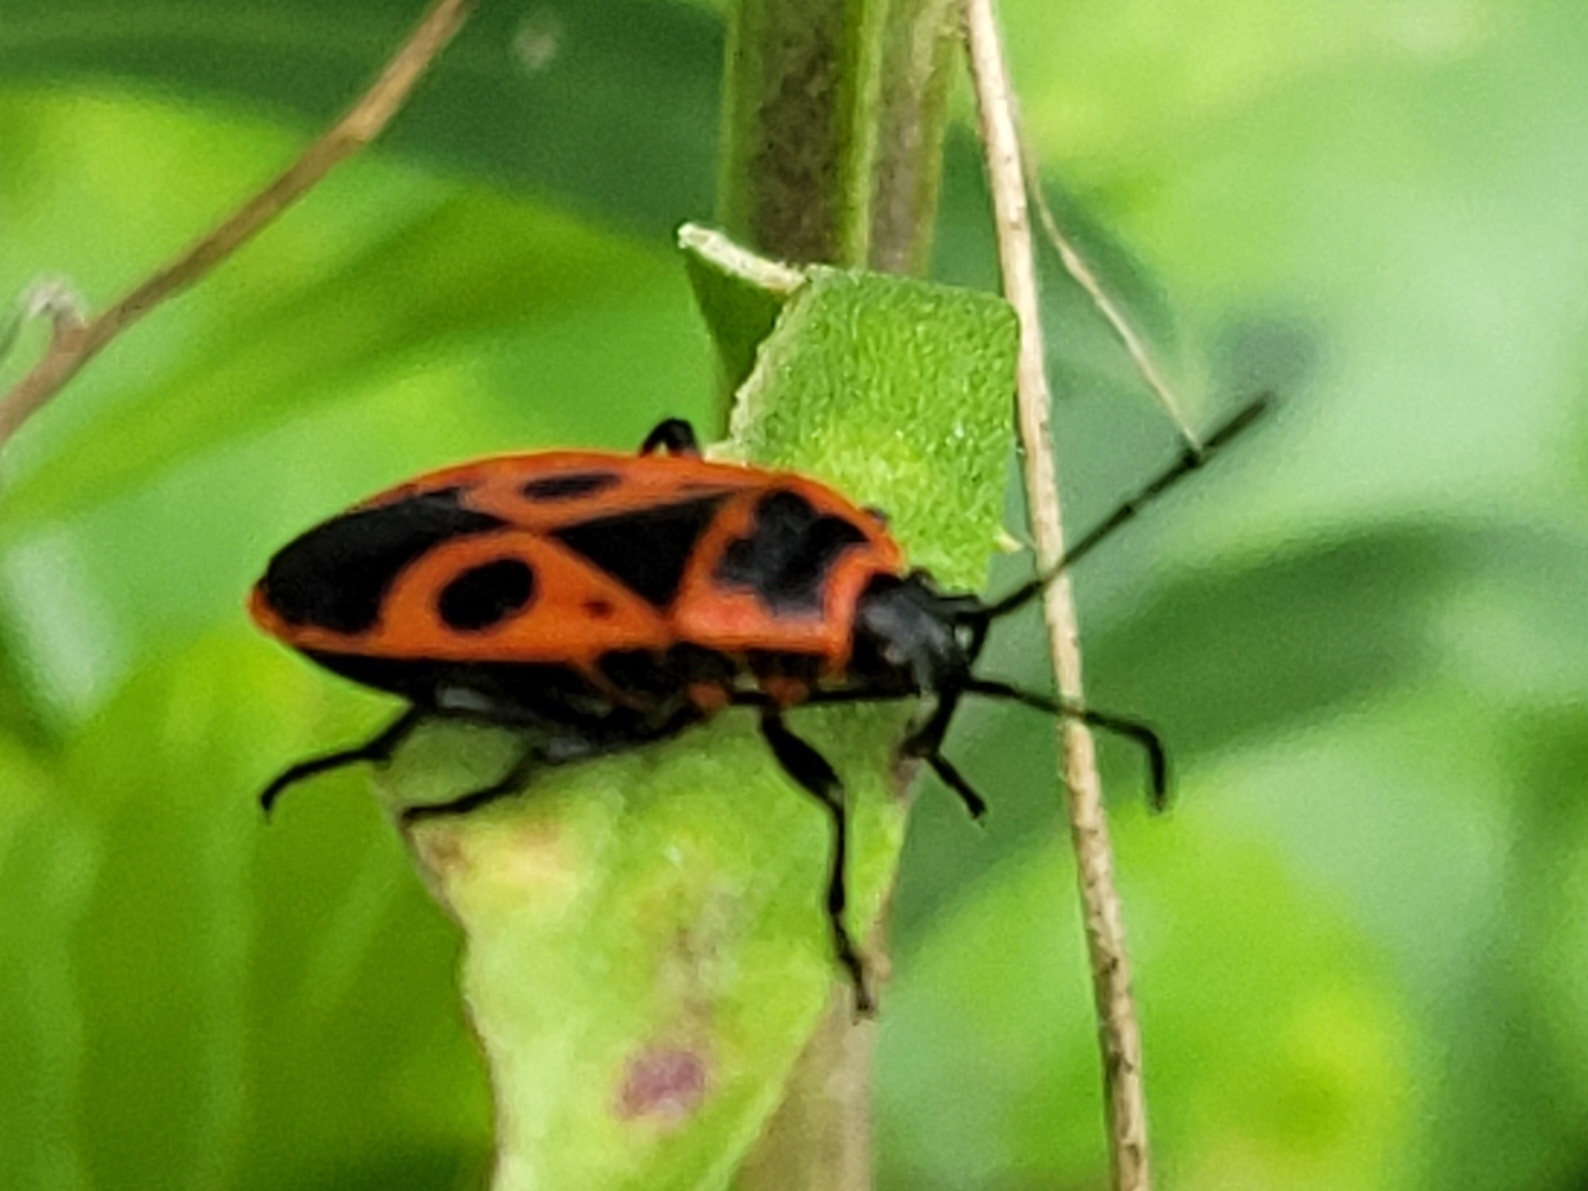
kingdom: Animalia
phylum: Arthropoda
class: Insecta
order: Hemiptera
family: Pyrrhocoridae
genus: Pyrrhocoris
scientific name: Pyrrhocoris apterus
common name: Firebug
